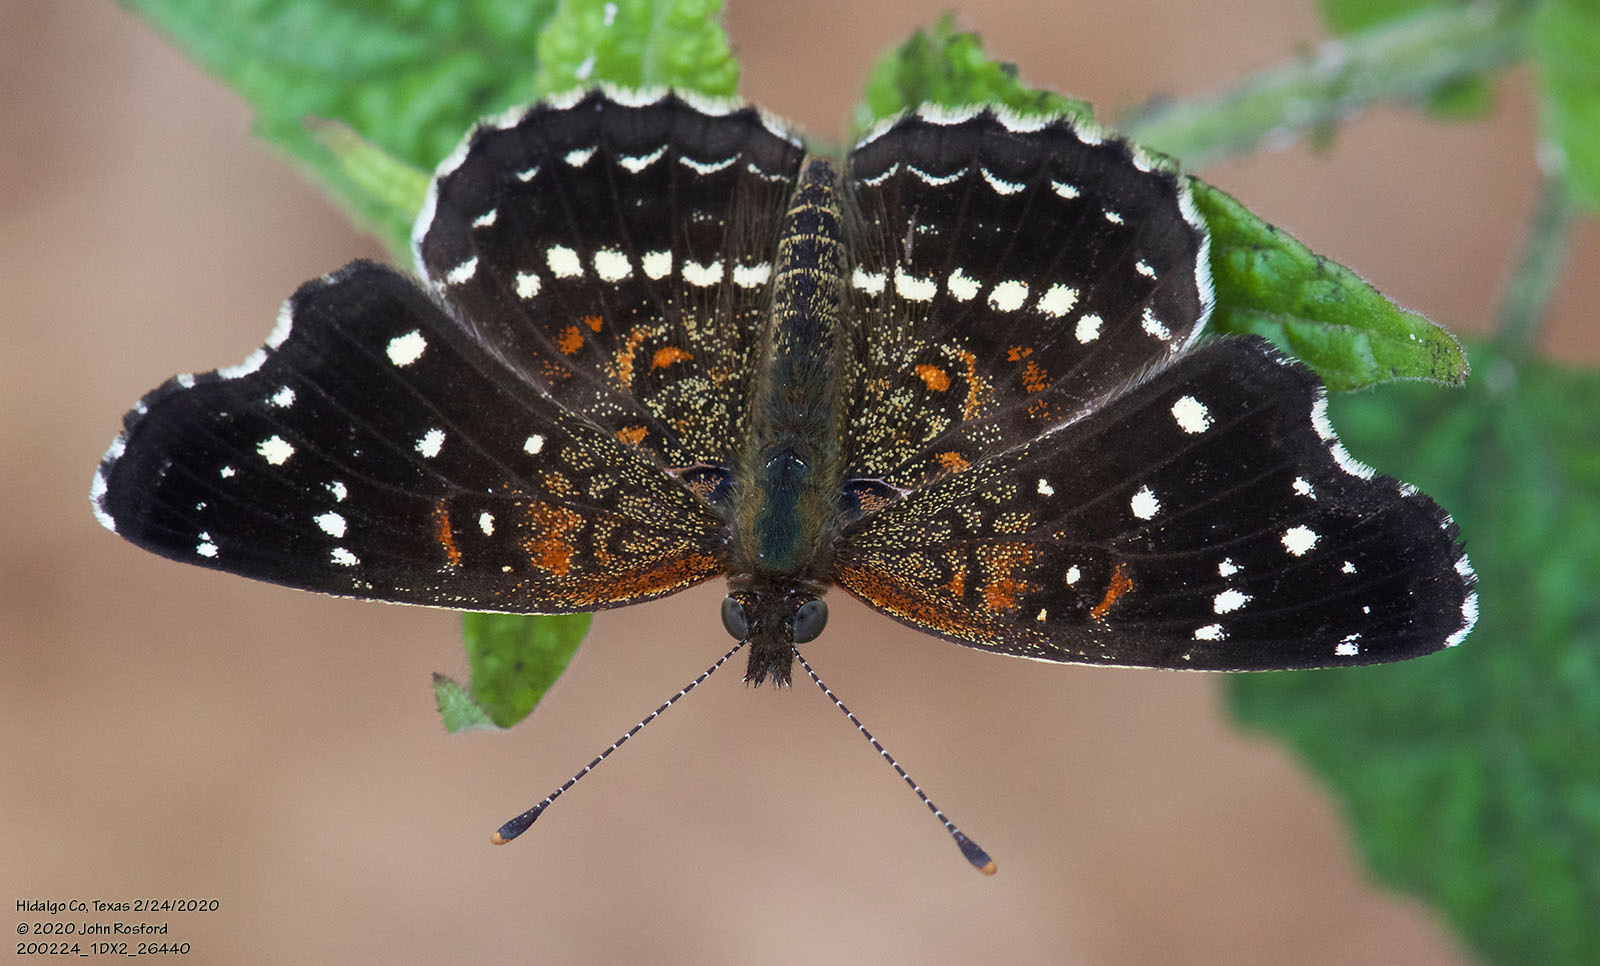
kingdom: Animalia
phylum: Arthropoda
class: Insecta
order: Lepidoptera
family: Nymphalidae
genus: Anthanassa
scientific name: Anthanassa texana
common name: Texan crescent
